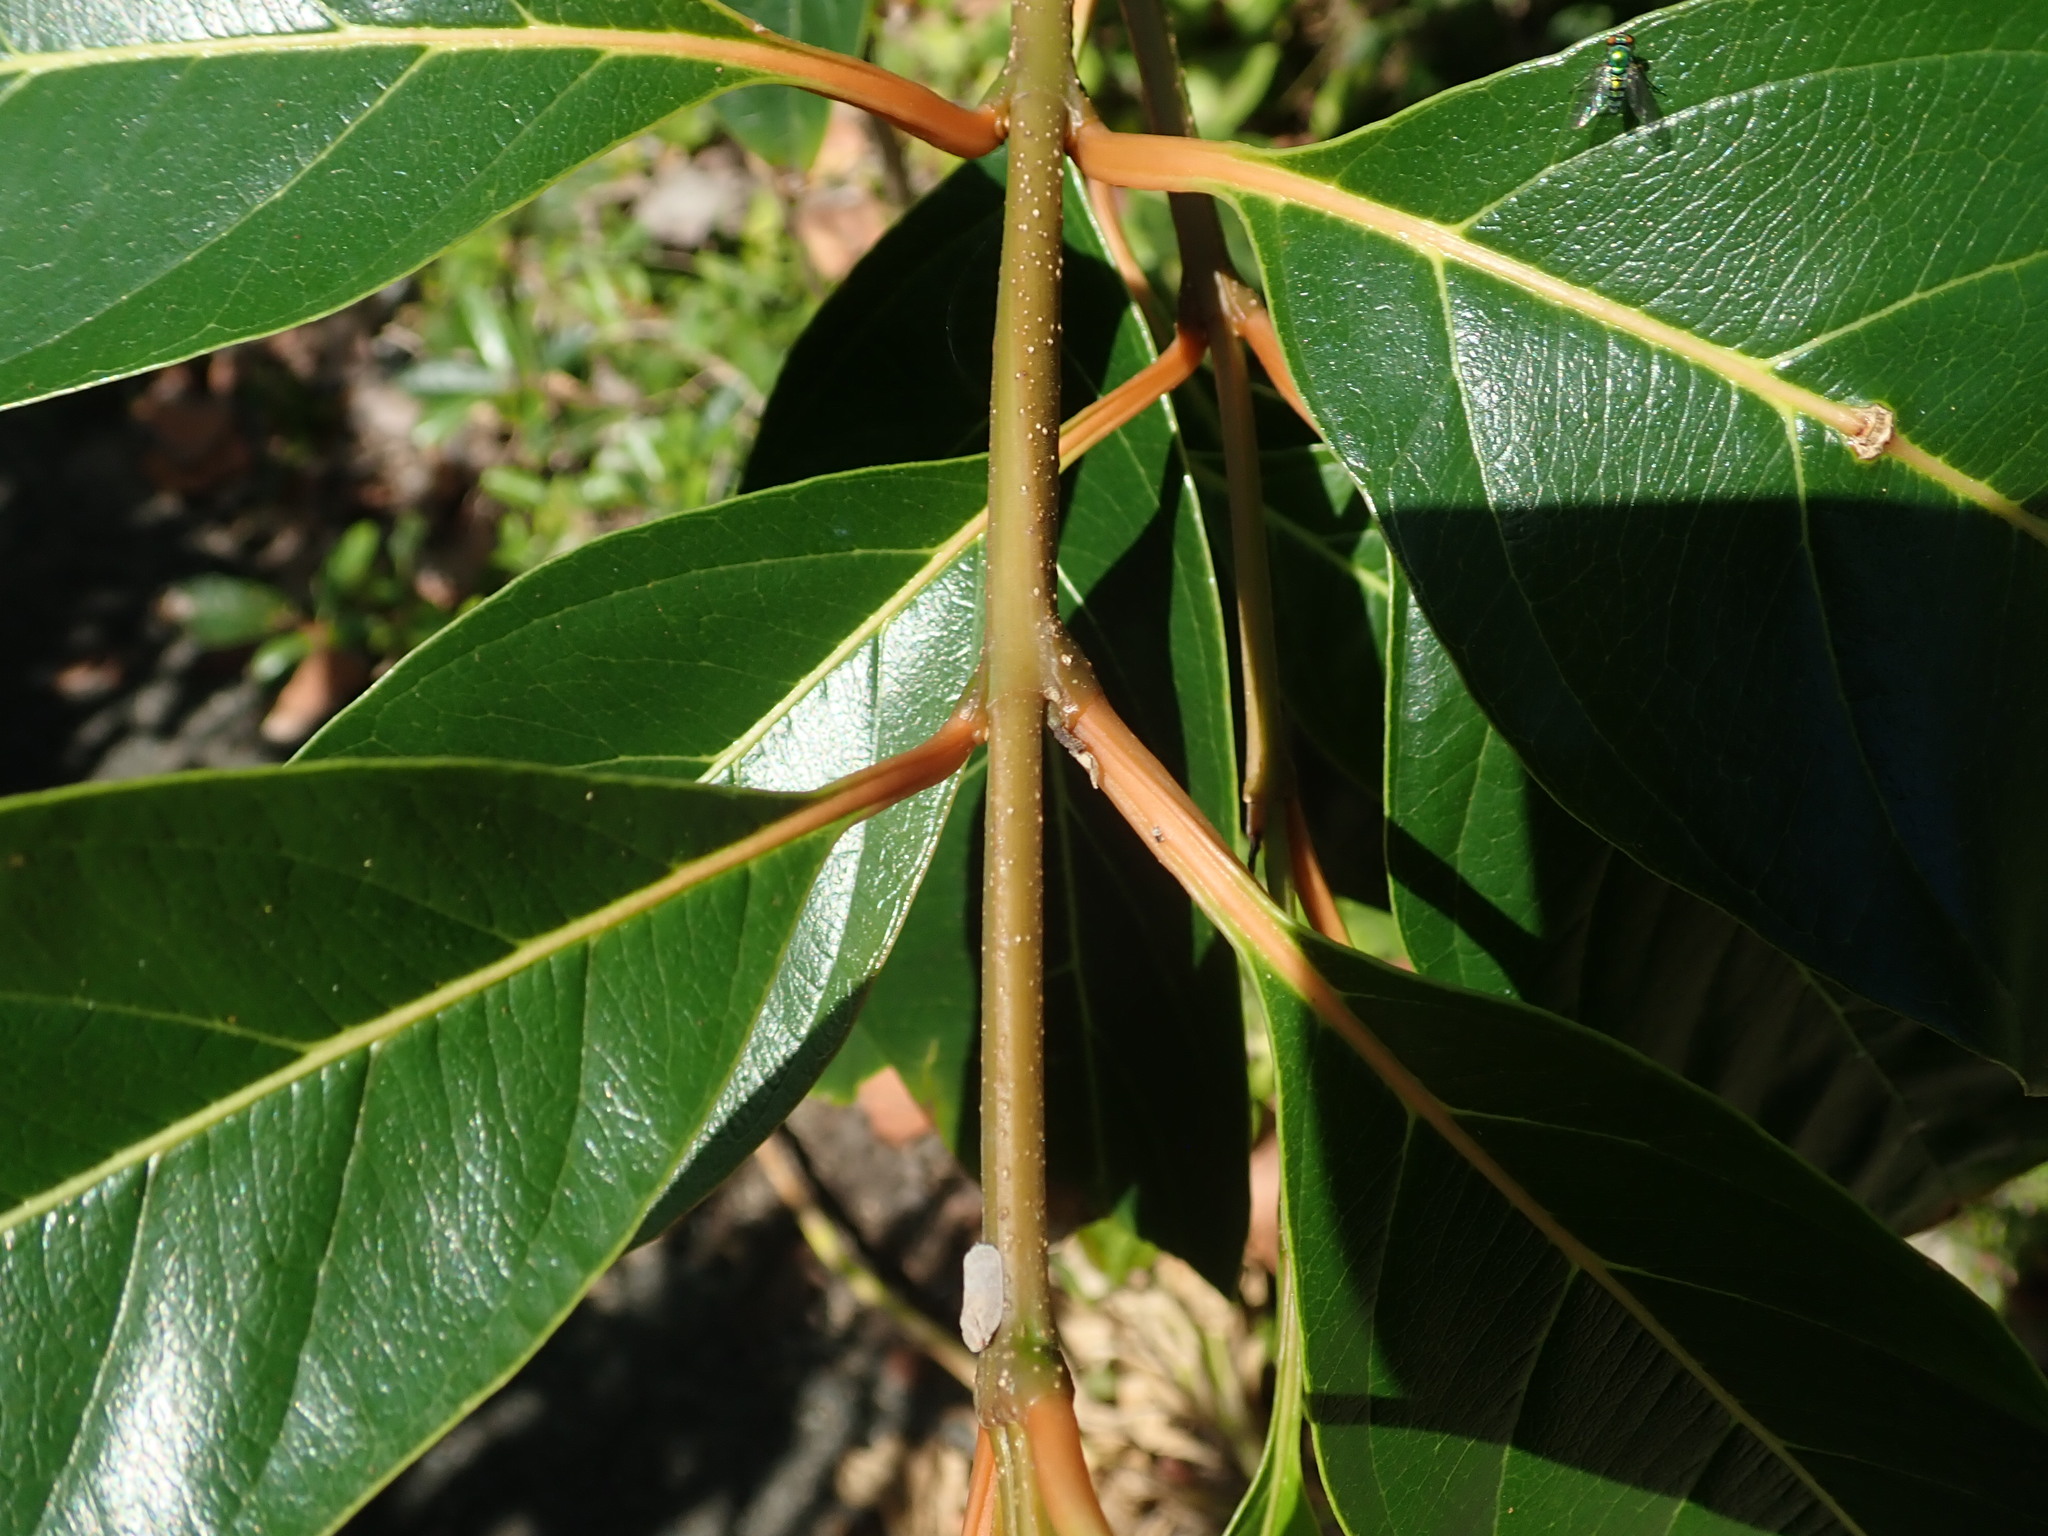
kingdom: Plantae
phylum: Tracheophyta
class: Magnoliopsida
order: Lamiales
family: Verbenaceae
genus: Citharexylum
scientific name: Citharexylum spinosum
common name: Fiddlewood
